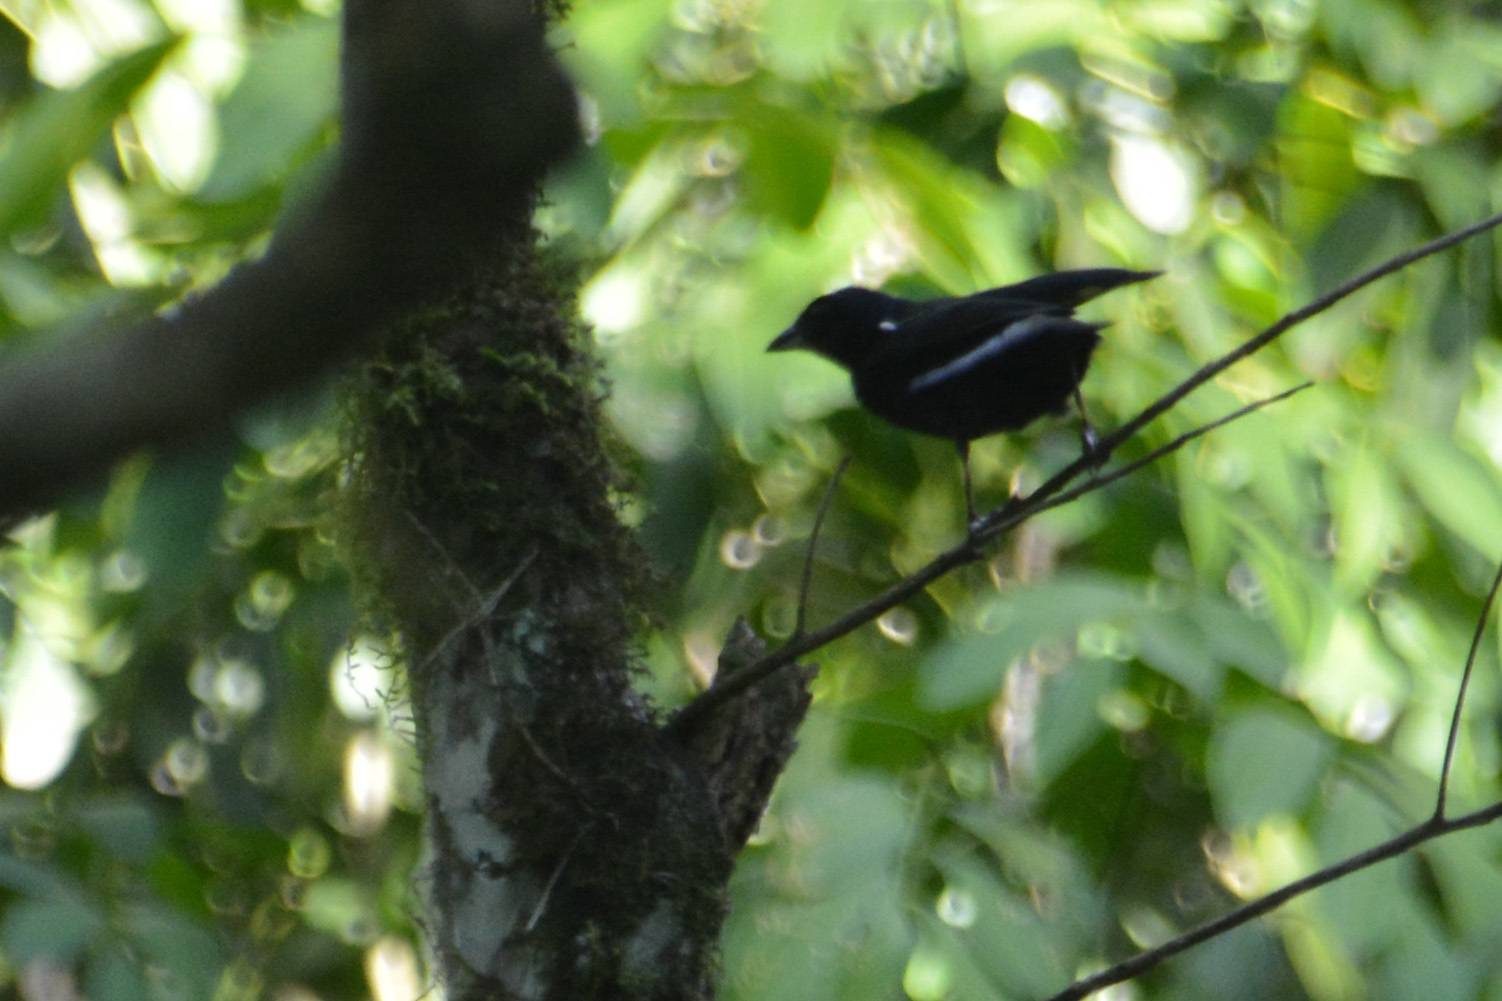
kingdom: Animalia
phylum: Chordata
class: Aves
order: Passeriformes
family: Thraupidae
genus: Tachyphonus
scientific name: Tachyphonus coronatus
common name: Ruby-crowned tanager
